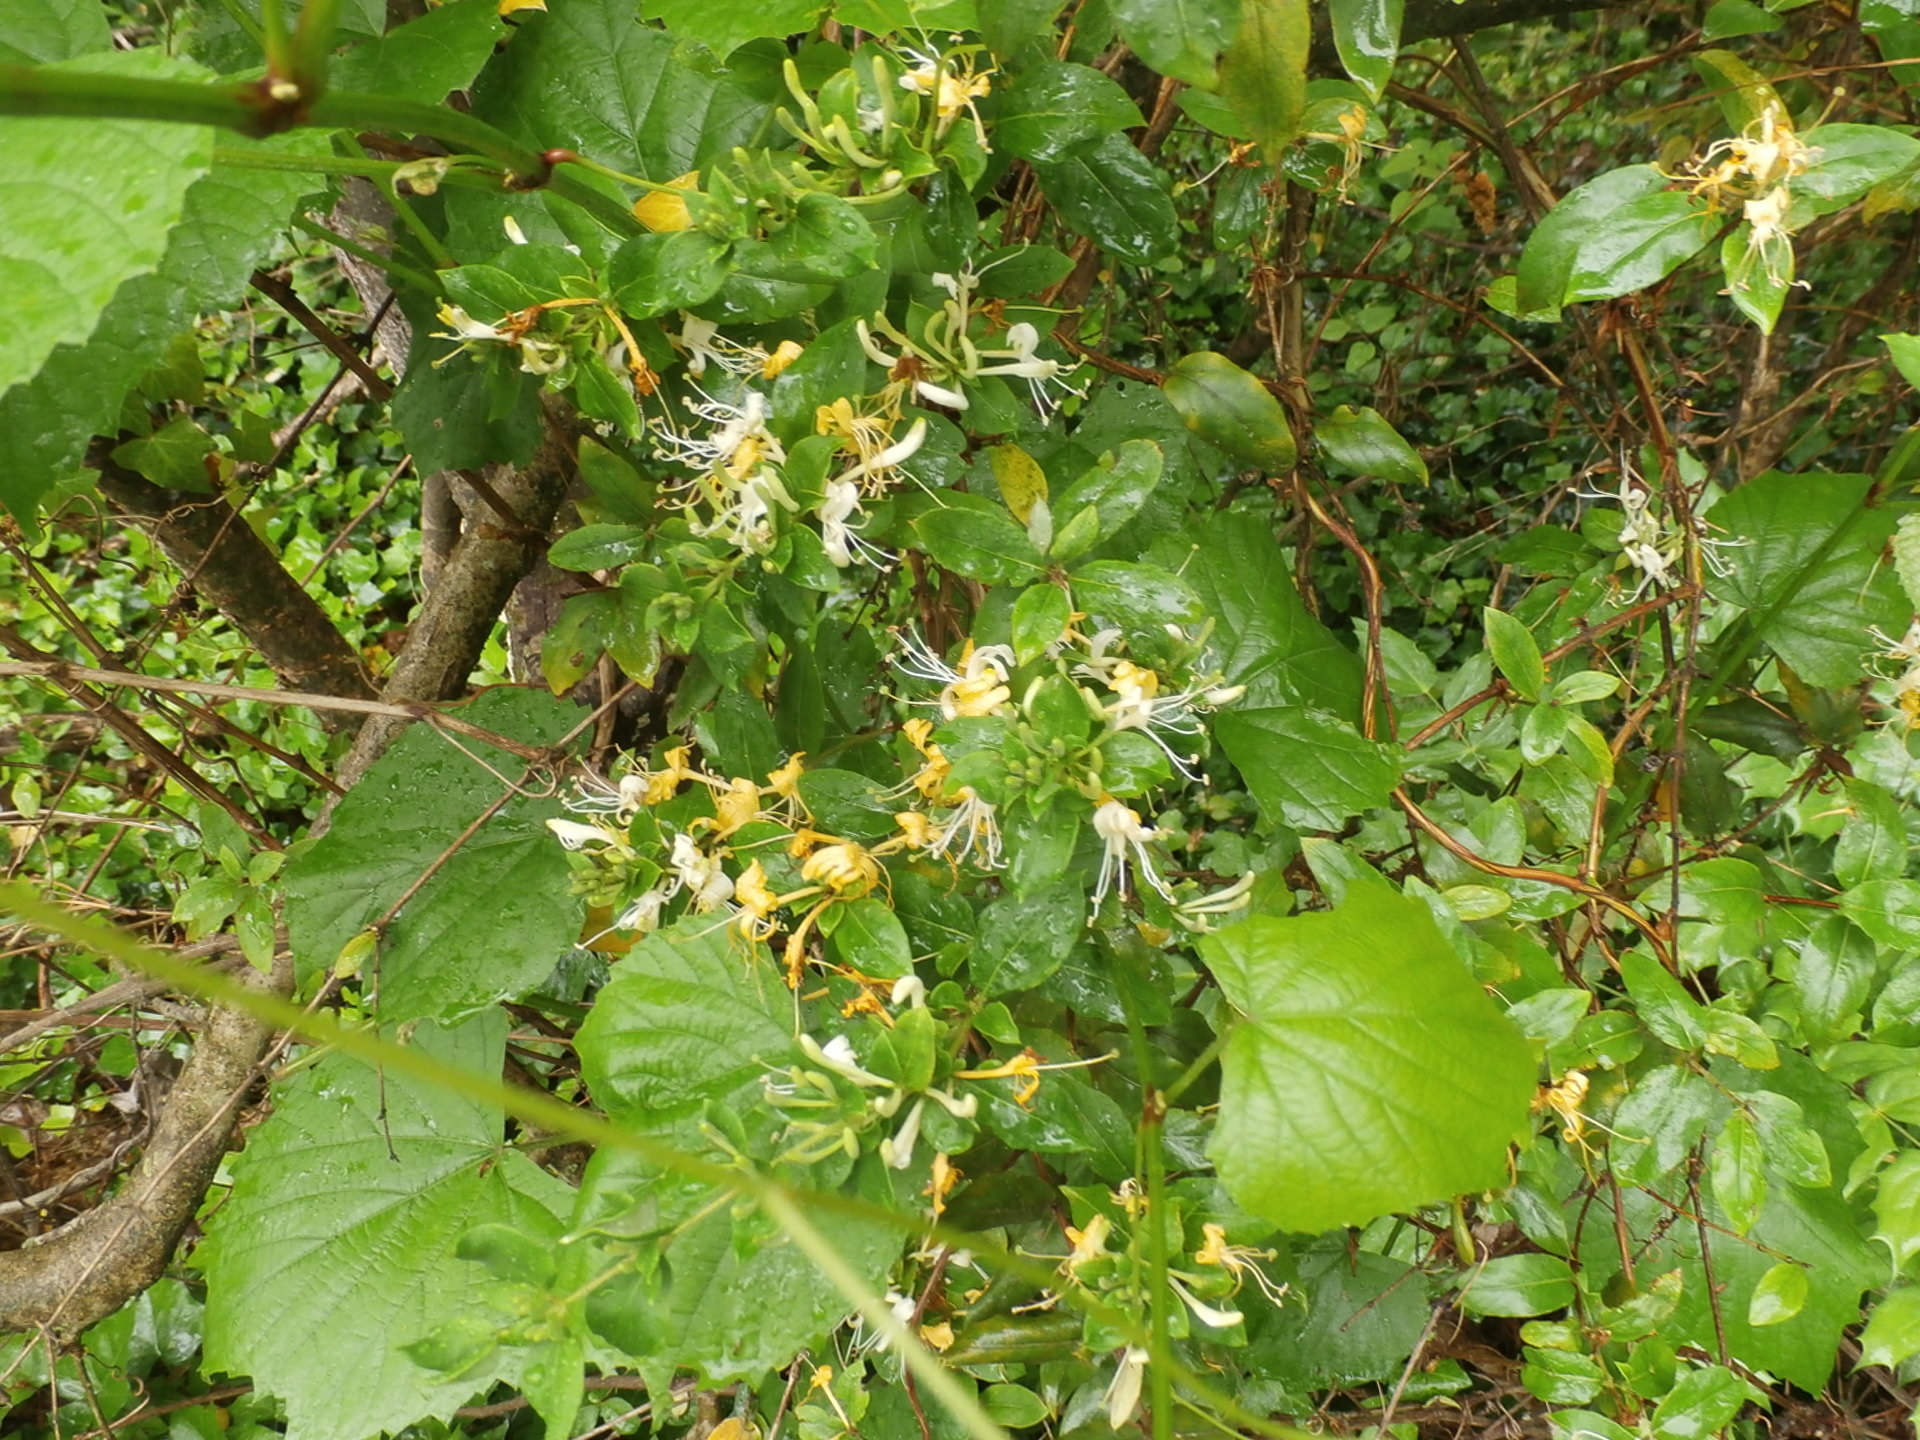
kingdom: Plantae
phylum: Tracheophyta
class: Magnoliopsida
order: Dipsacales
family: Caprifoliaceae
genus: Lonicera
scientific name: Lonicera japonica
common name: Japanese honeysuckle
